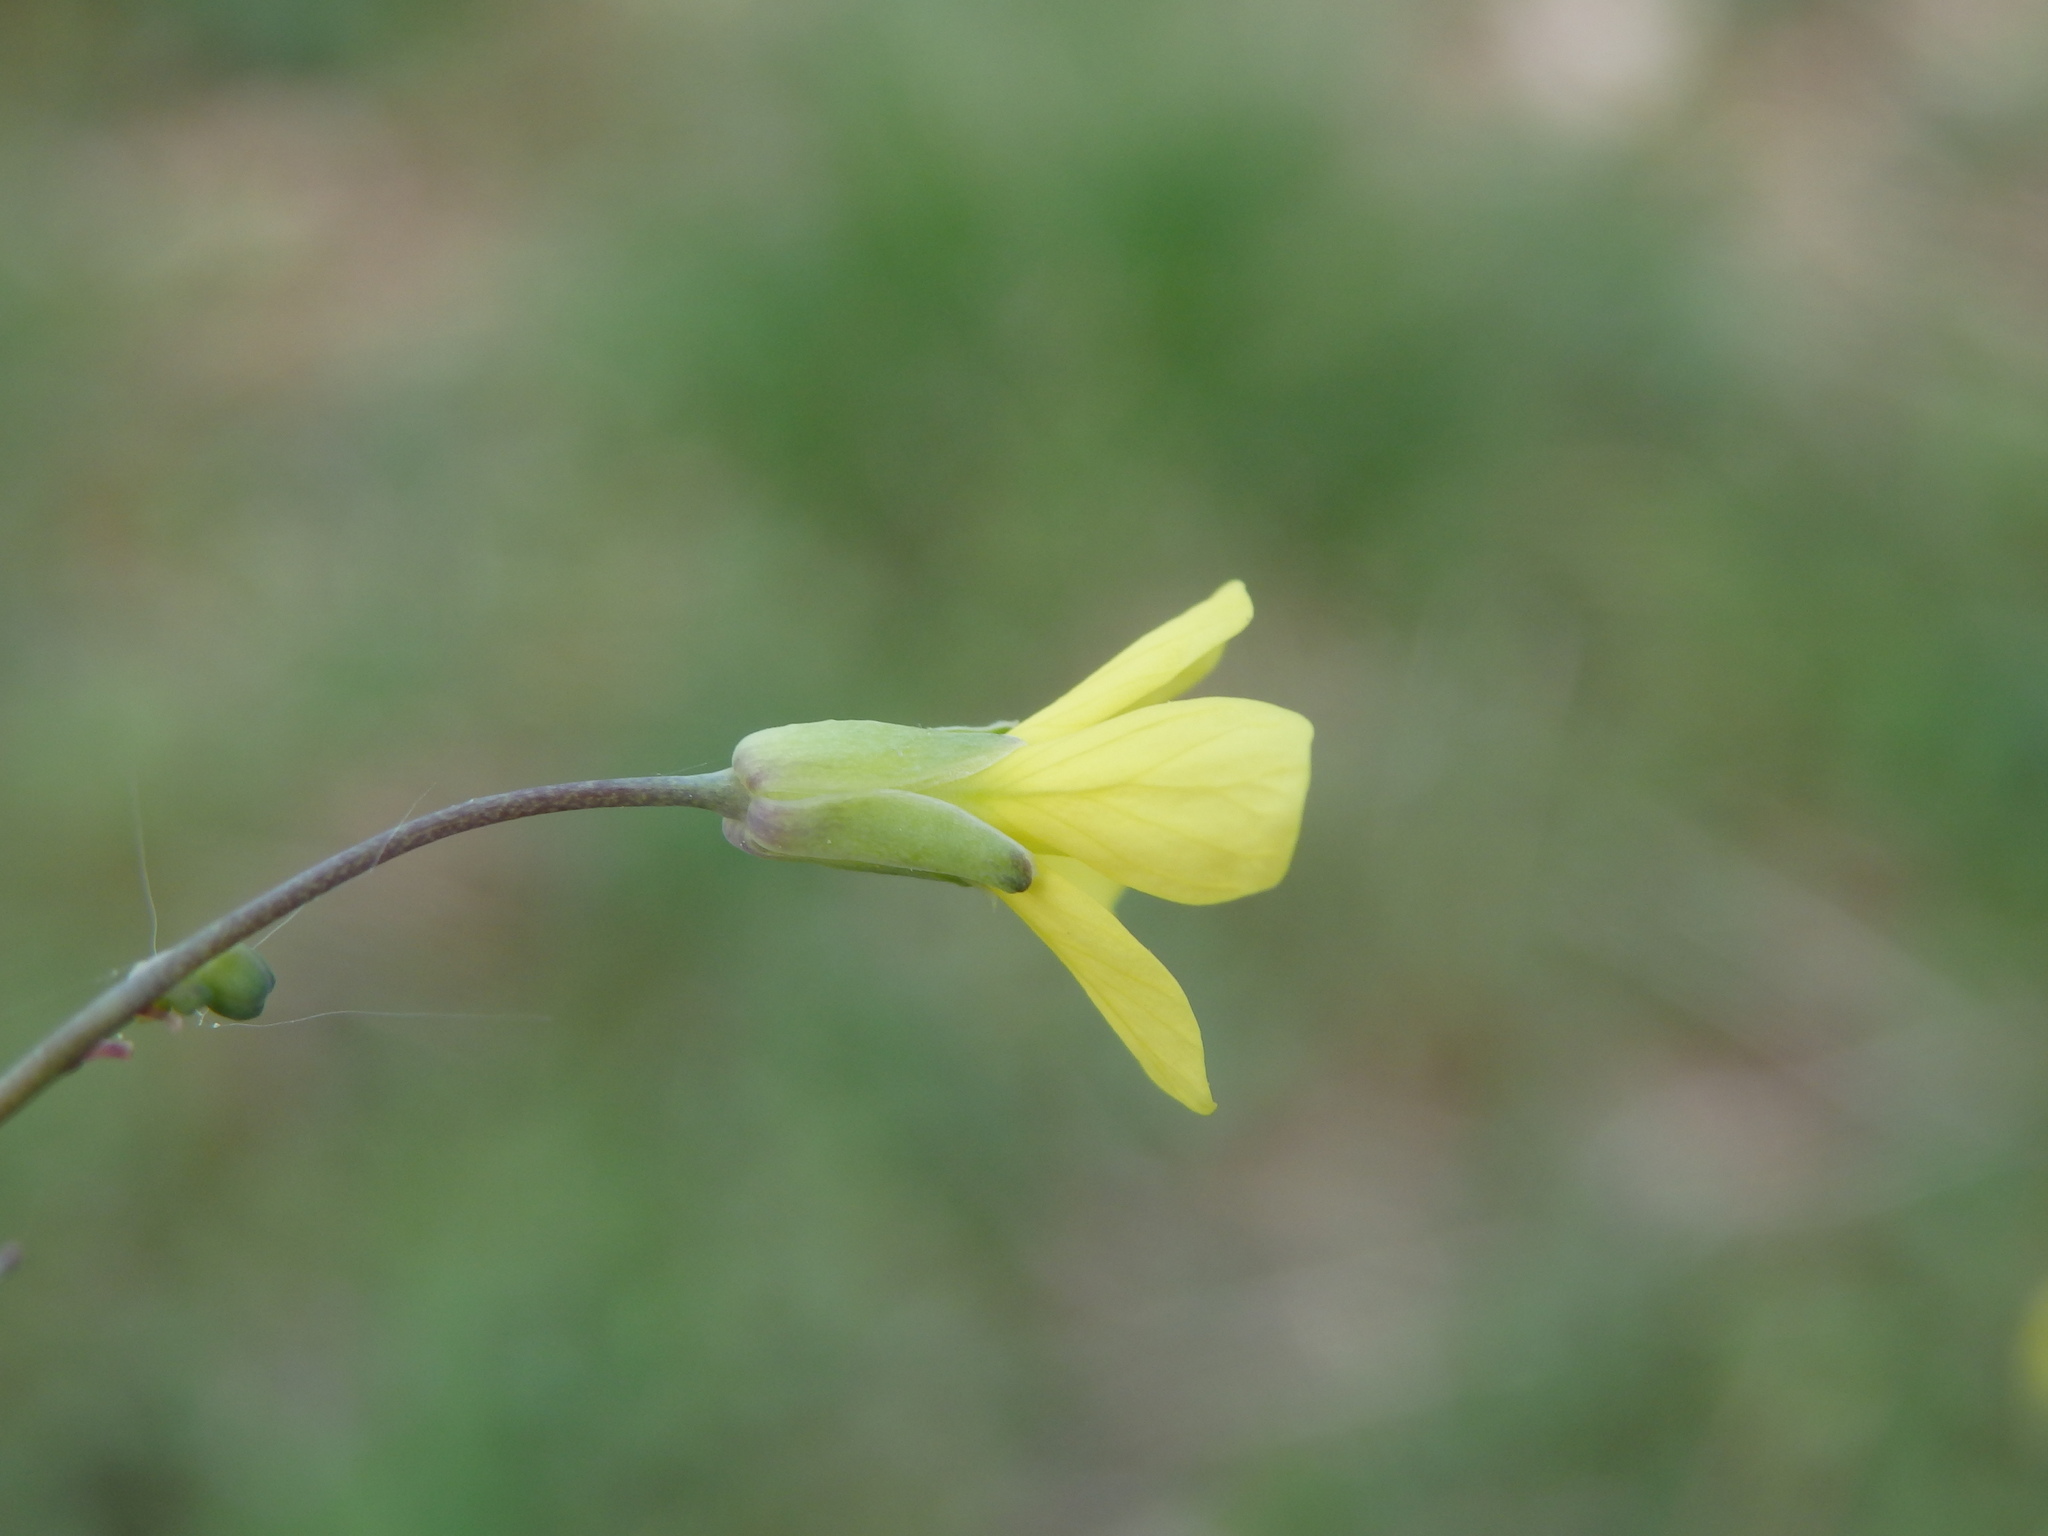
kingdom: Plantae
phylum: Tracheophyta
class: Magnoliopsida
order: Brassicales
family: Brassicaceae
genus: Diplotaxis
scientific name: Diplotaxis tenuifolia
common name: Perennial wall-rocket
